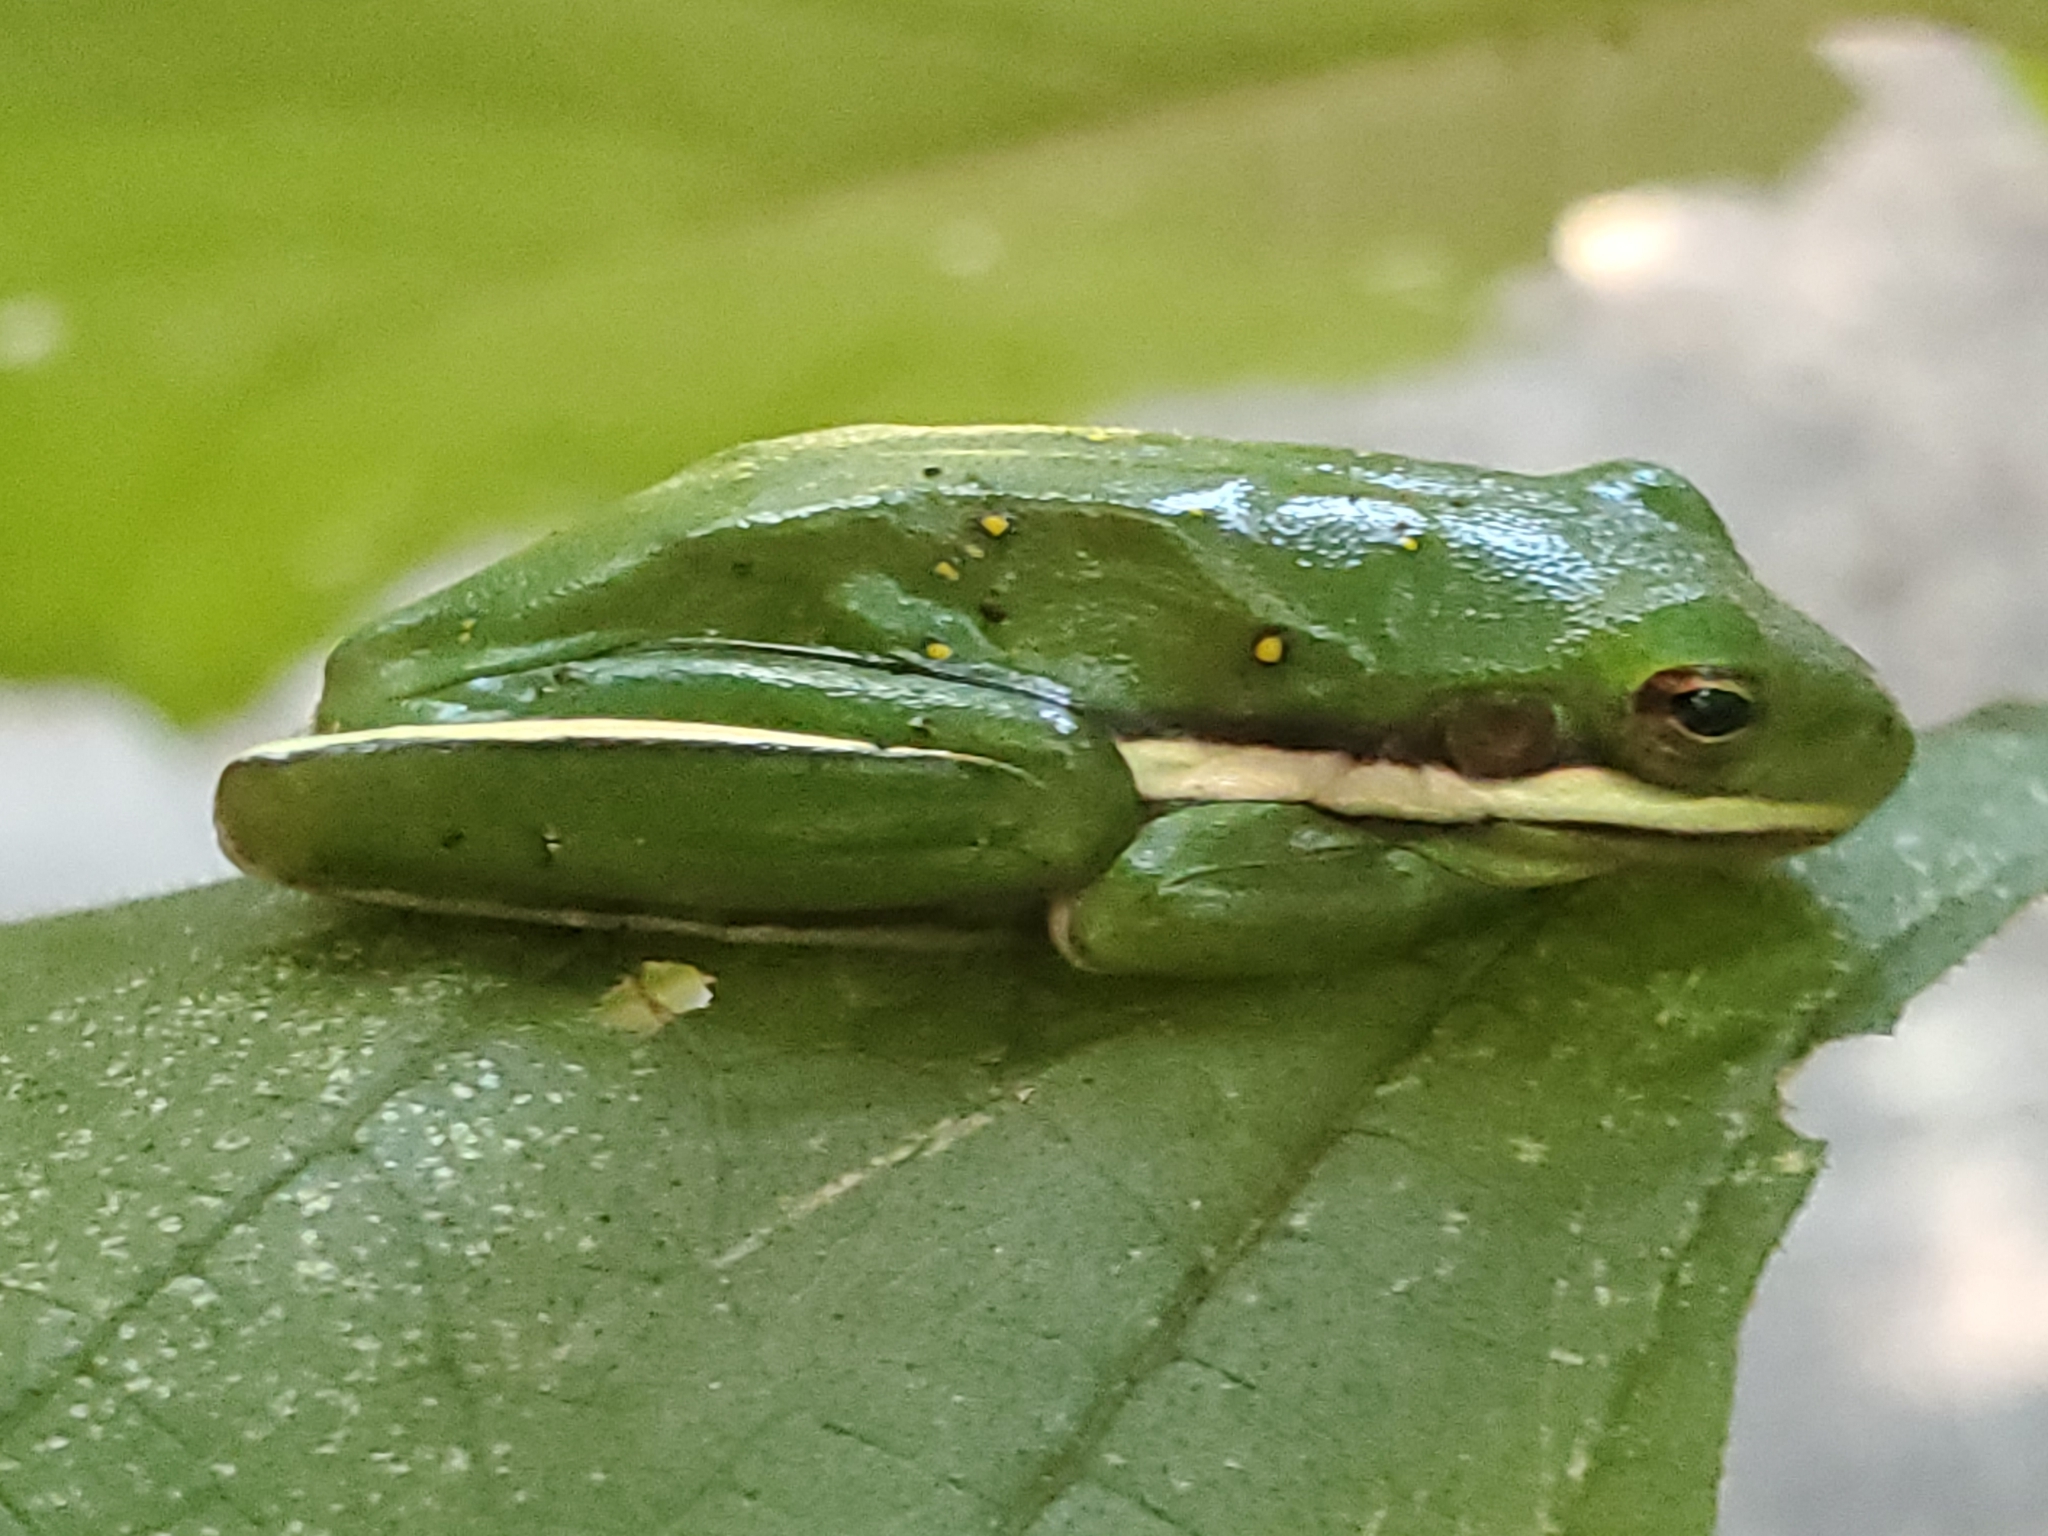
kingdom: Animalia
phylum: Chordata
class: Amphibia
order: Anura
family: Hylidae
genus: Dryophytes
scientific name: Dryophytes cinereus
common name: Green treefrog
